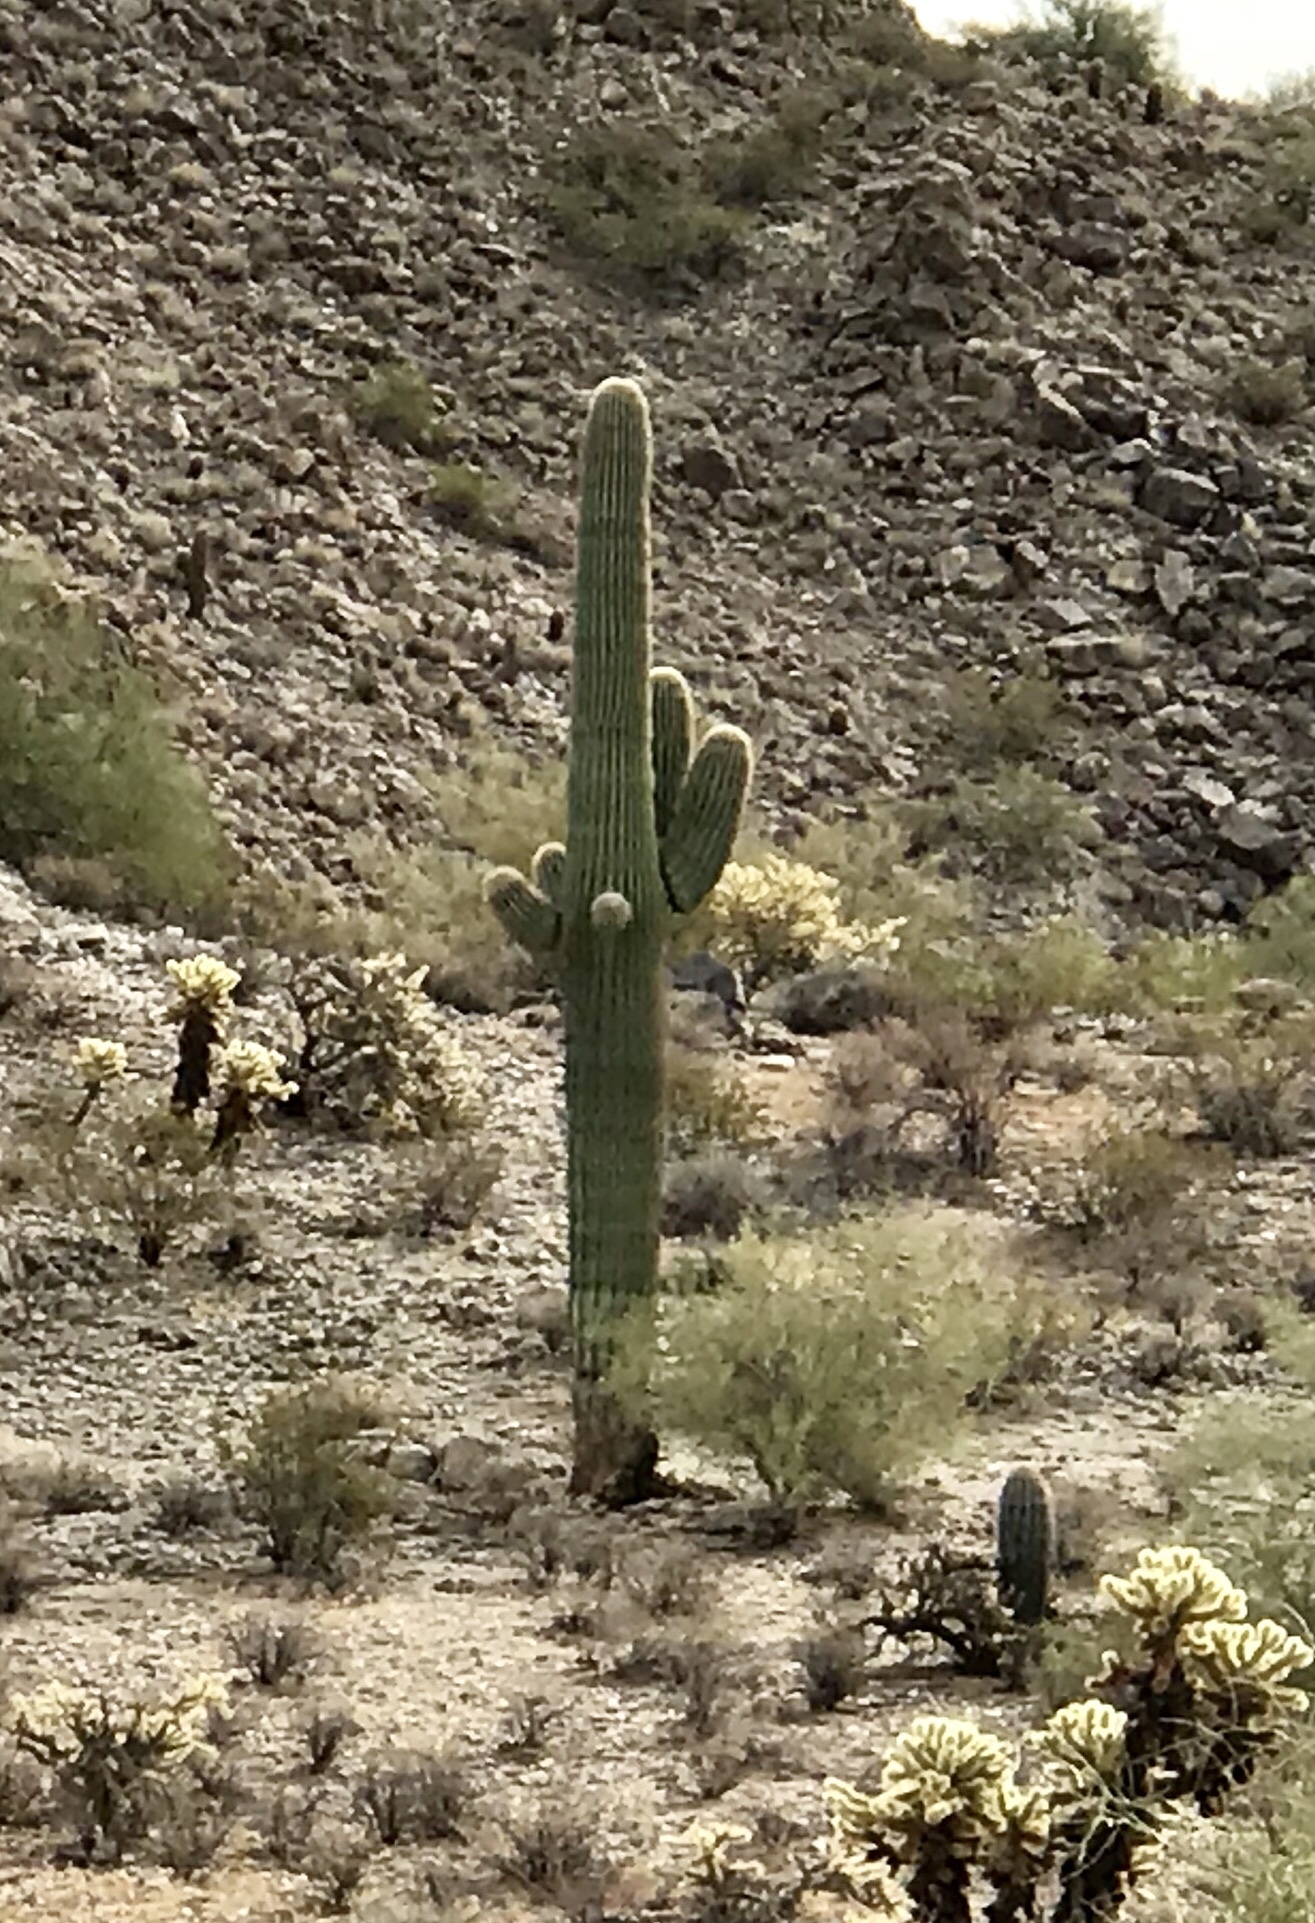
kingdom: Plantae
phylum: Tracheophyta
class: Magnoliopsida
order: Caryophyllales
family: Cactaceae
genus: Carnegiea
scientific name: Carnegiea gigantea
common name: Saguaro
